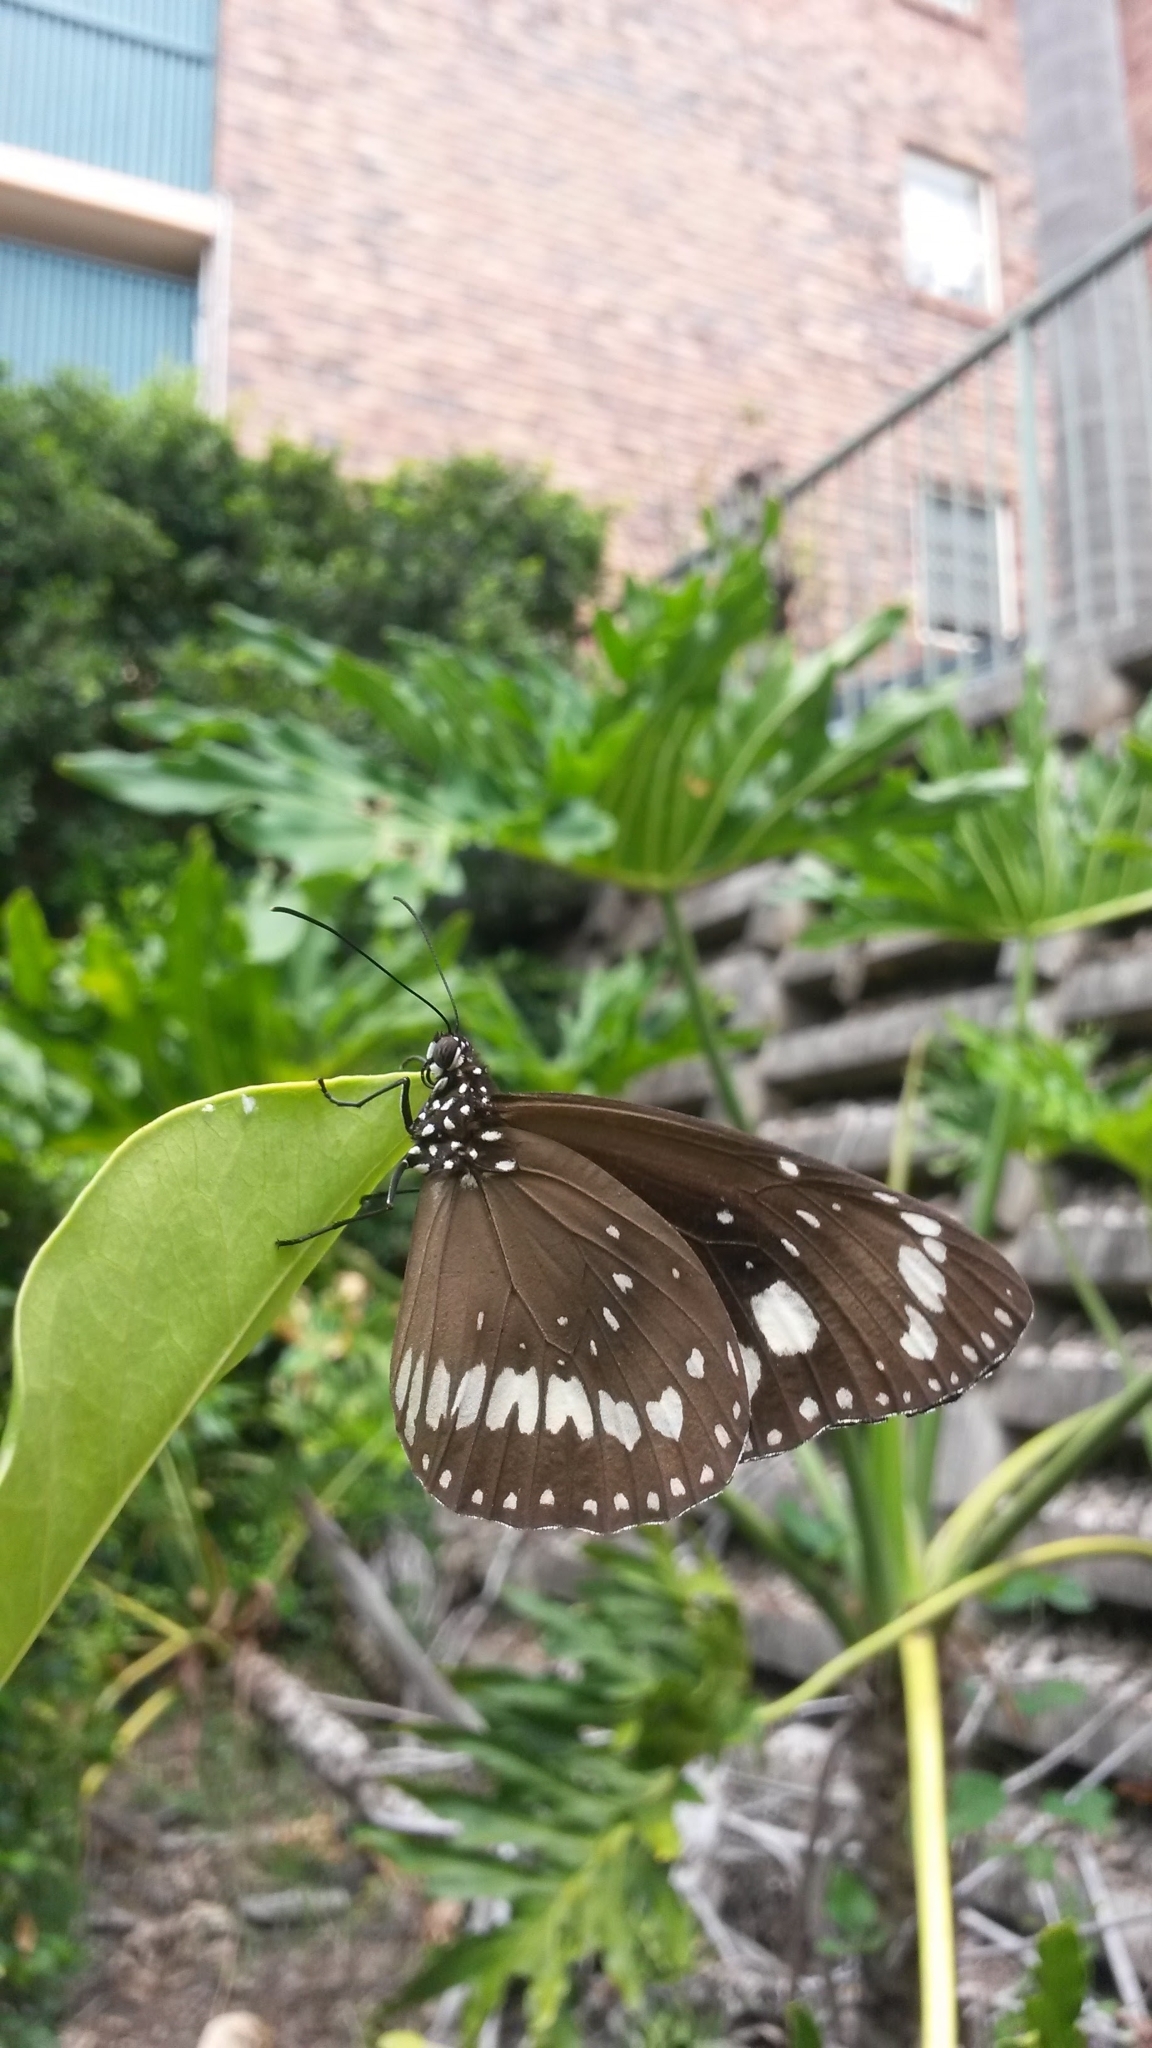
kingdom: Animalia
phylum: Arthropoda
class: Insecta
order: Lepidoptera
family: Nymphalidae
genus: Euploea
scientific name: Euploea core
